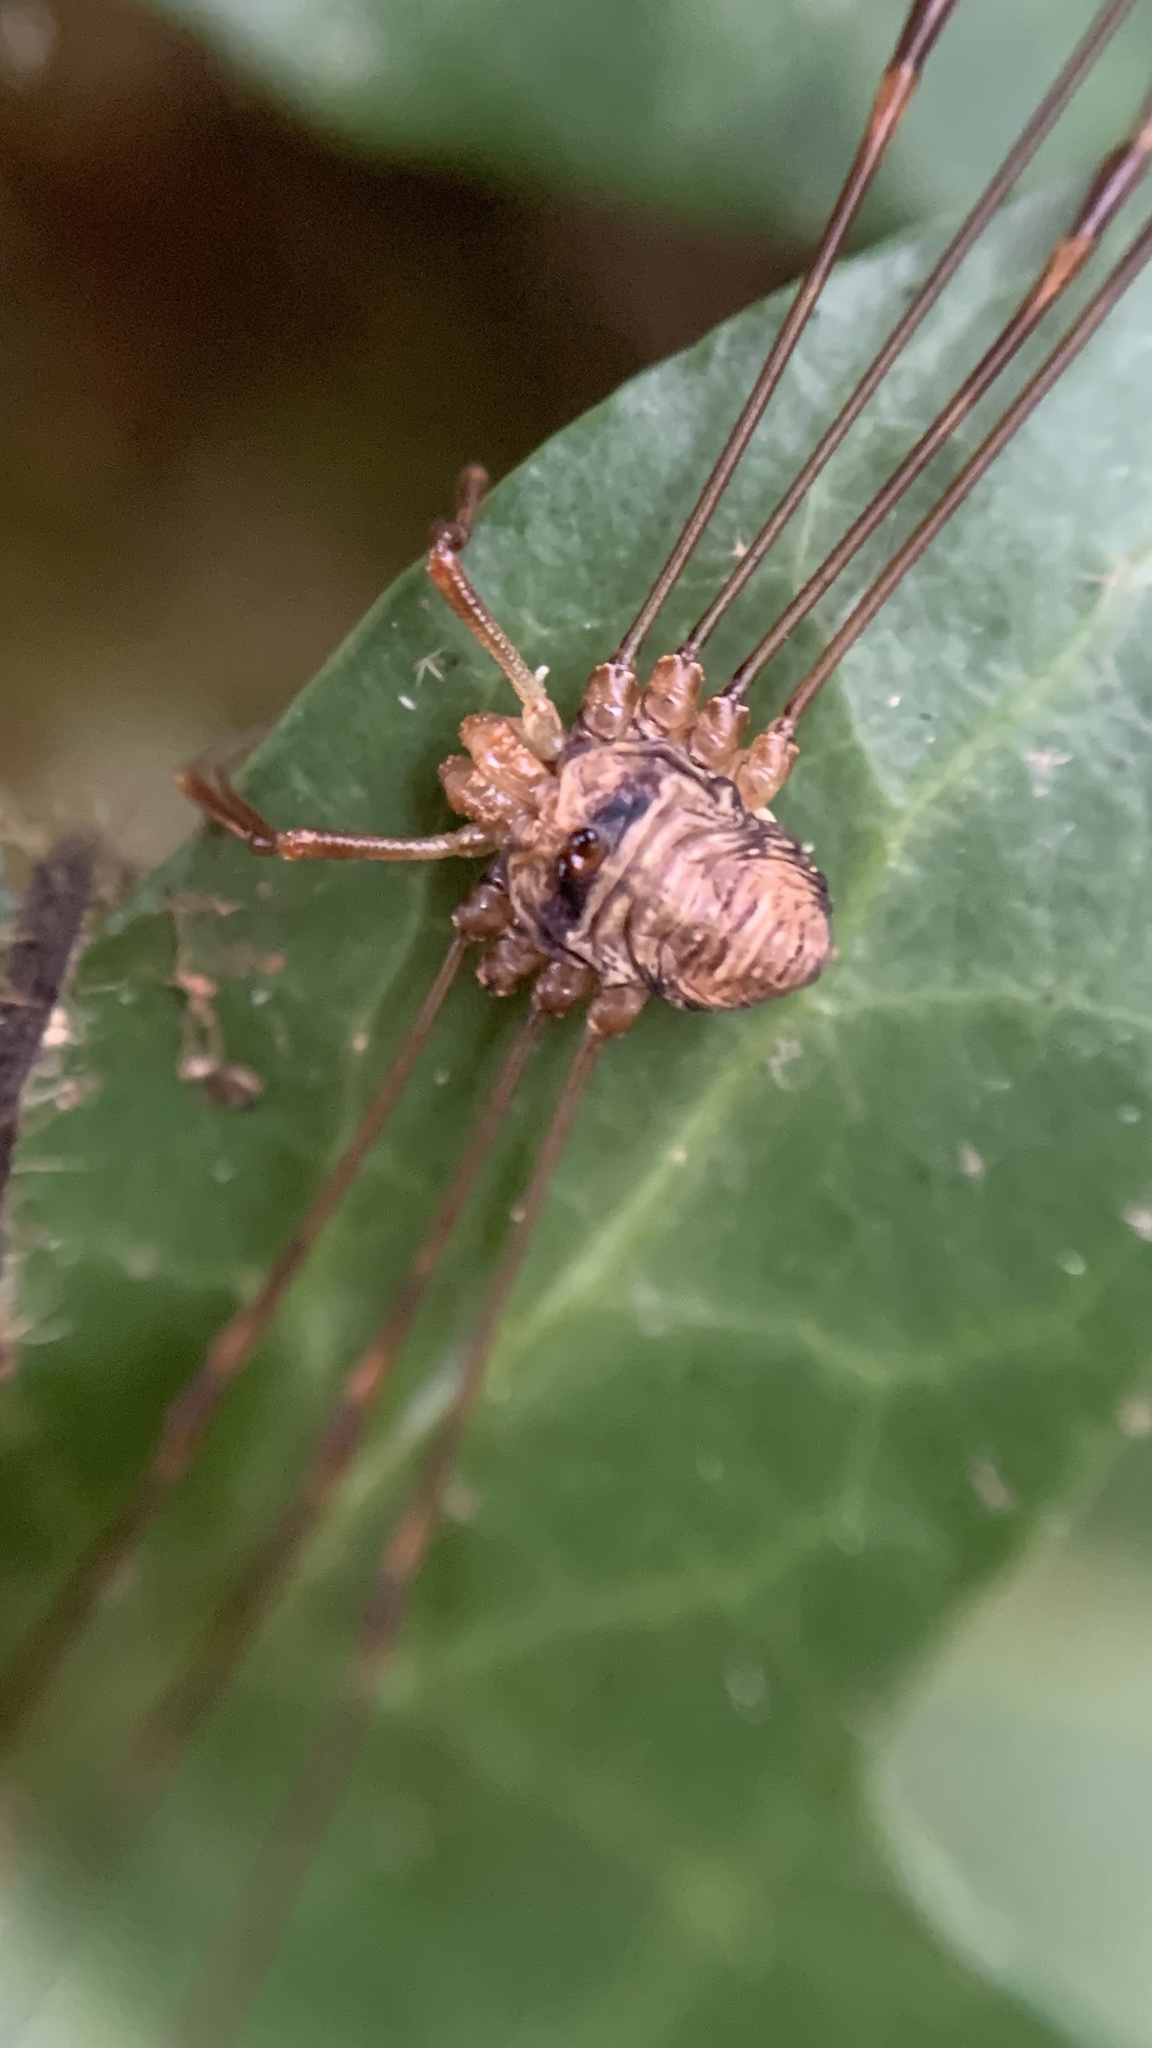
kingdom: Animalia
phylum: Arthropoda
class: Arachnida
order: Opiliones
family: Phalangiidae
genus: Dicranopalpus
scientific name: Dicranopalpus ramosus
